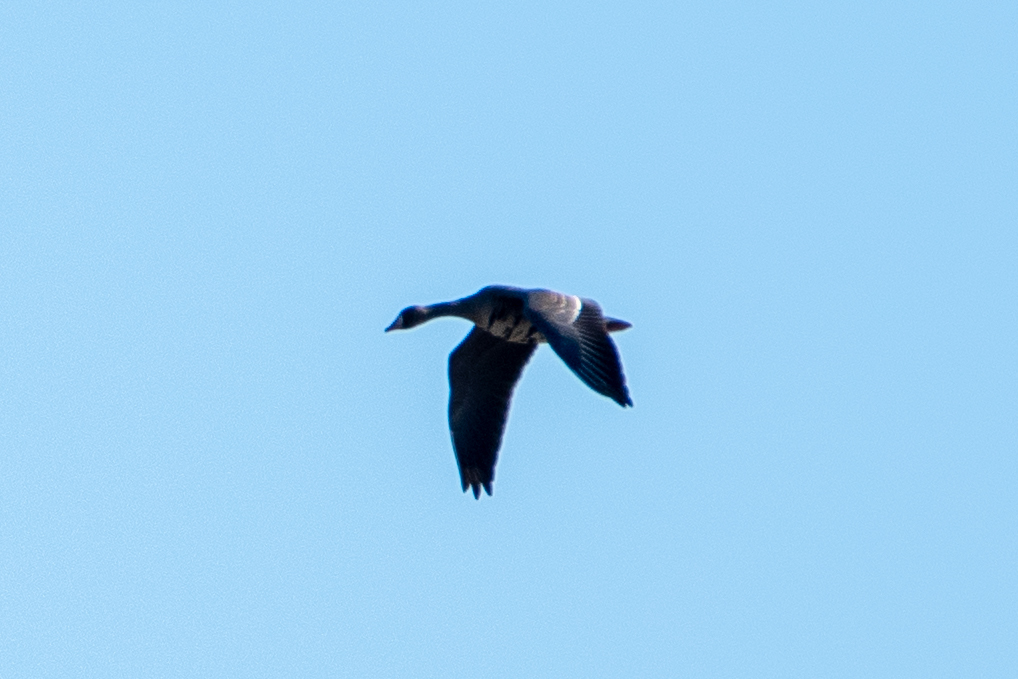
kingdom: Animalia
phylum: Chordata
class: Aves
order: Anseriformes
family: Anatidae
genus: Anser
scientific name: Anser albifrons
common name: Greater white-fronted goose
